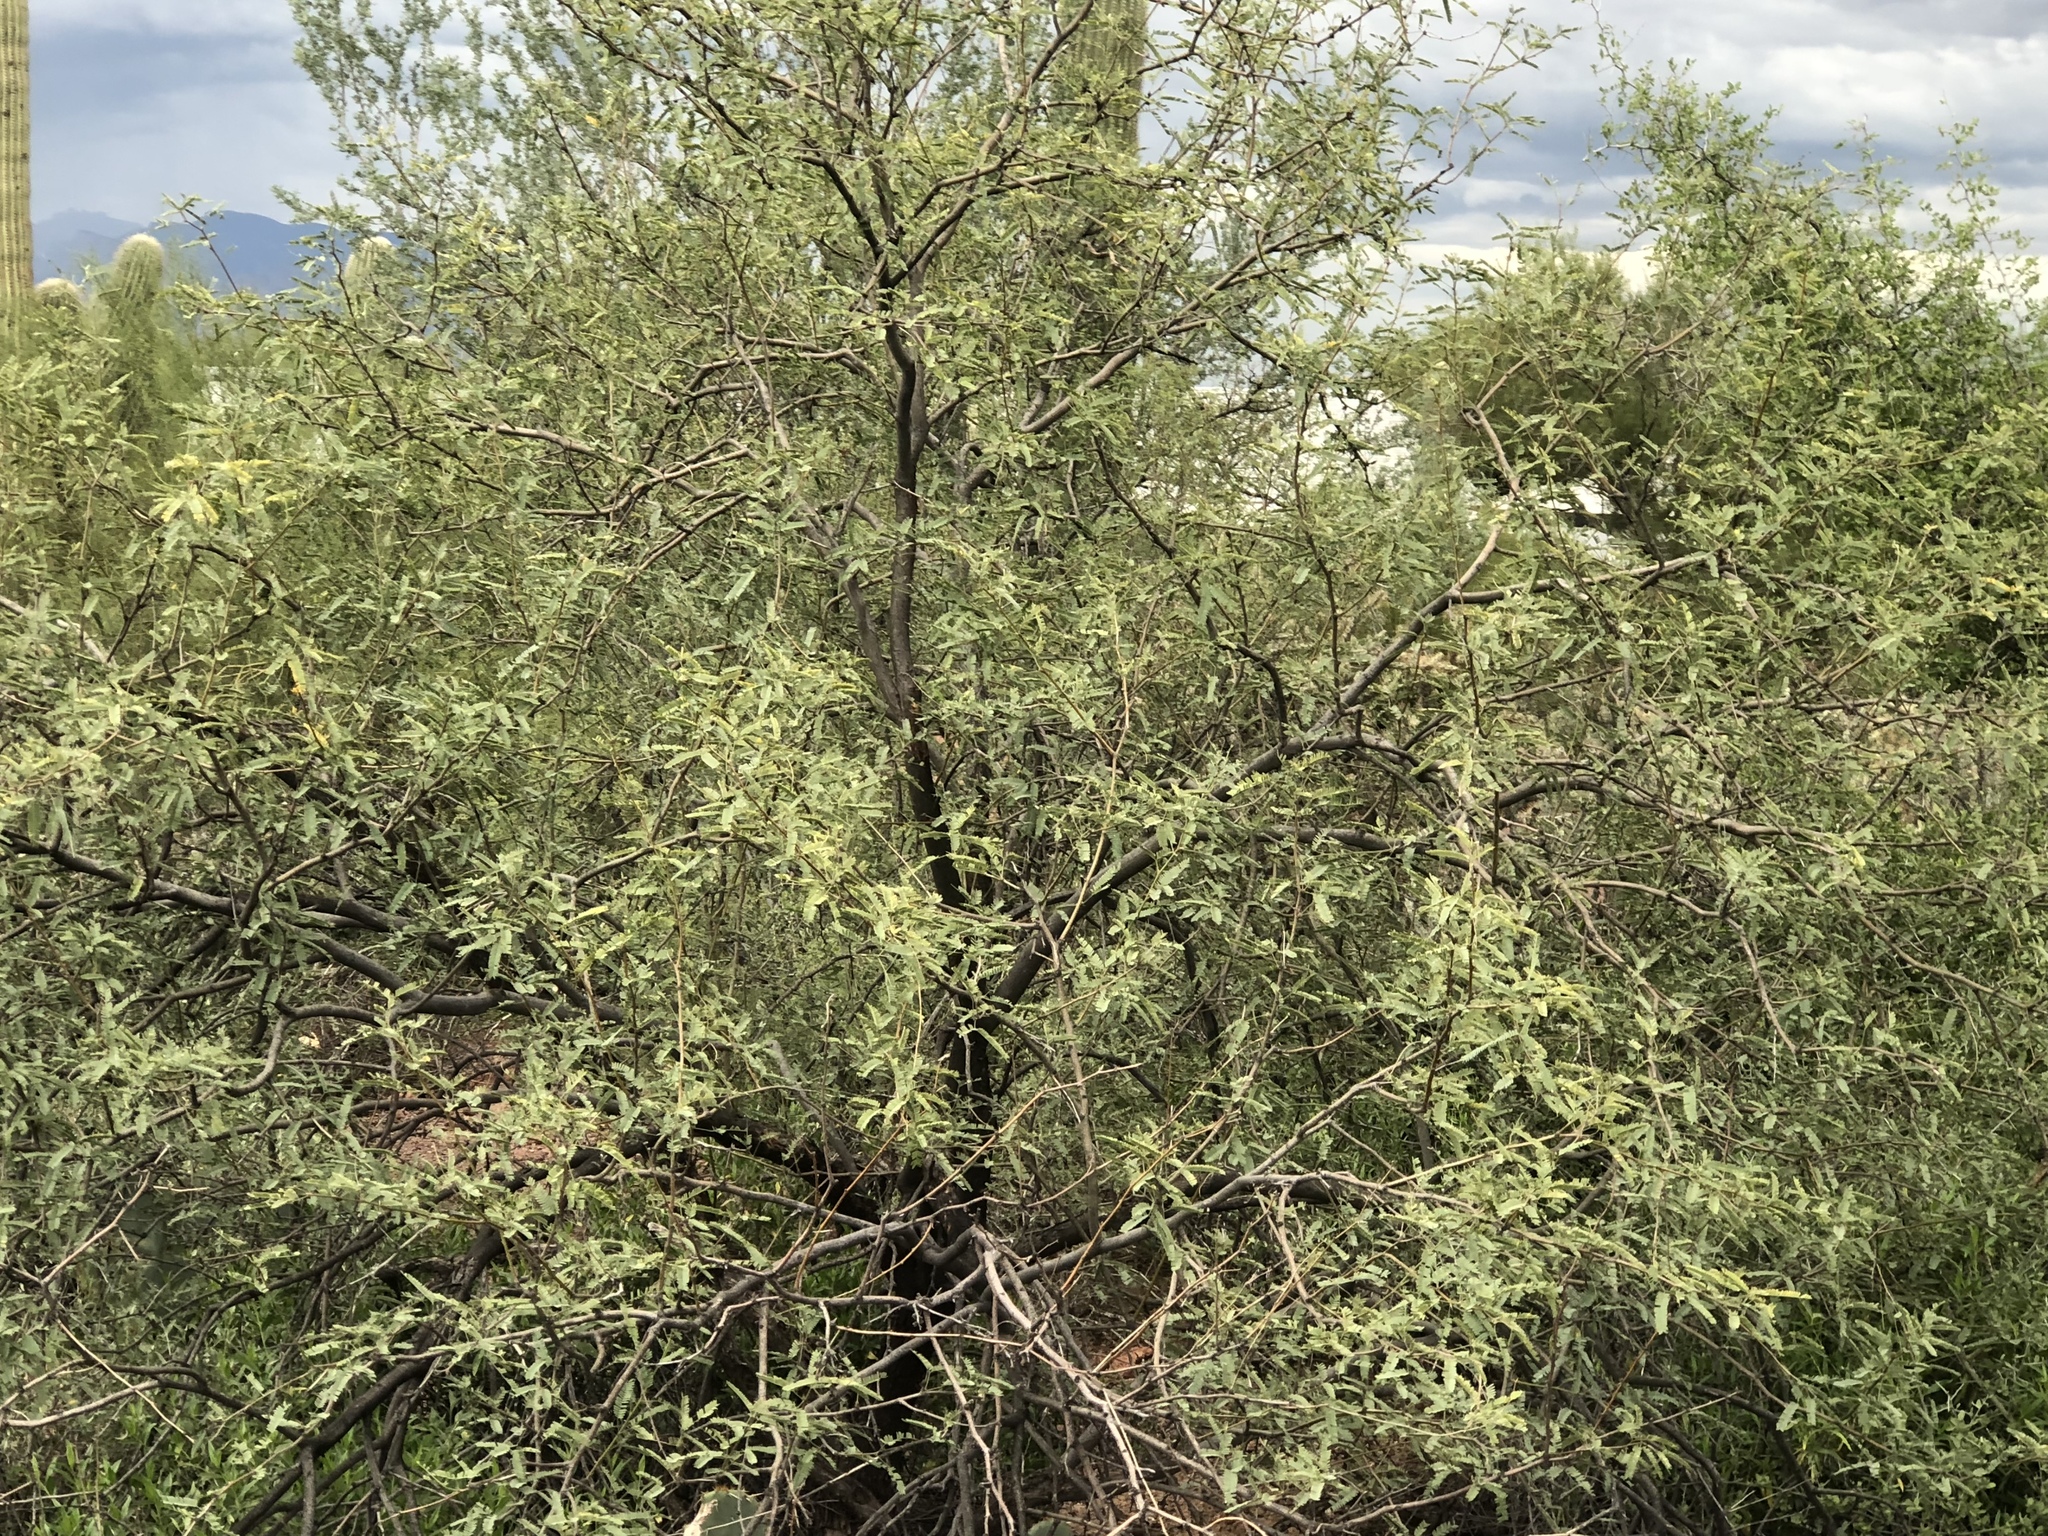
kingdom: Plantae
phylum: Tracheophyta
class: Magnoliopsida
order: Fabales
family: Fabaceae
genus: Prosopis
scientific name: Prosopis velutina
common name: Velvet mesquite
